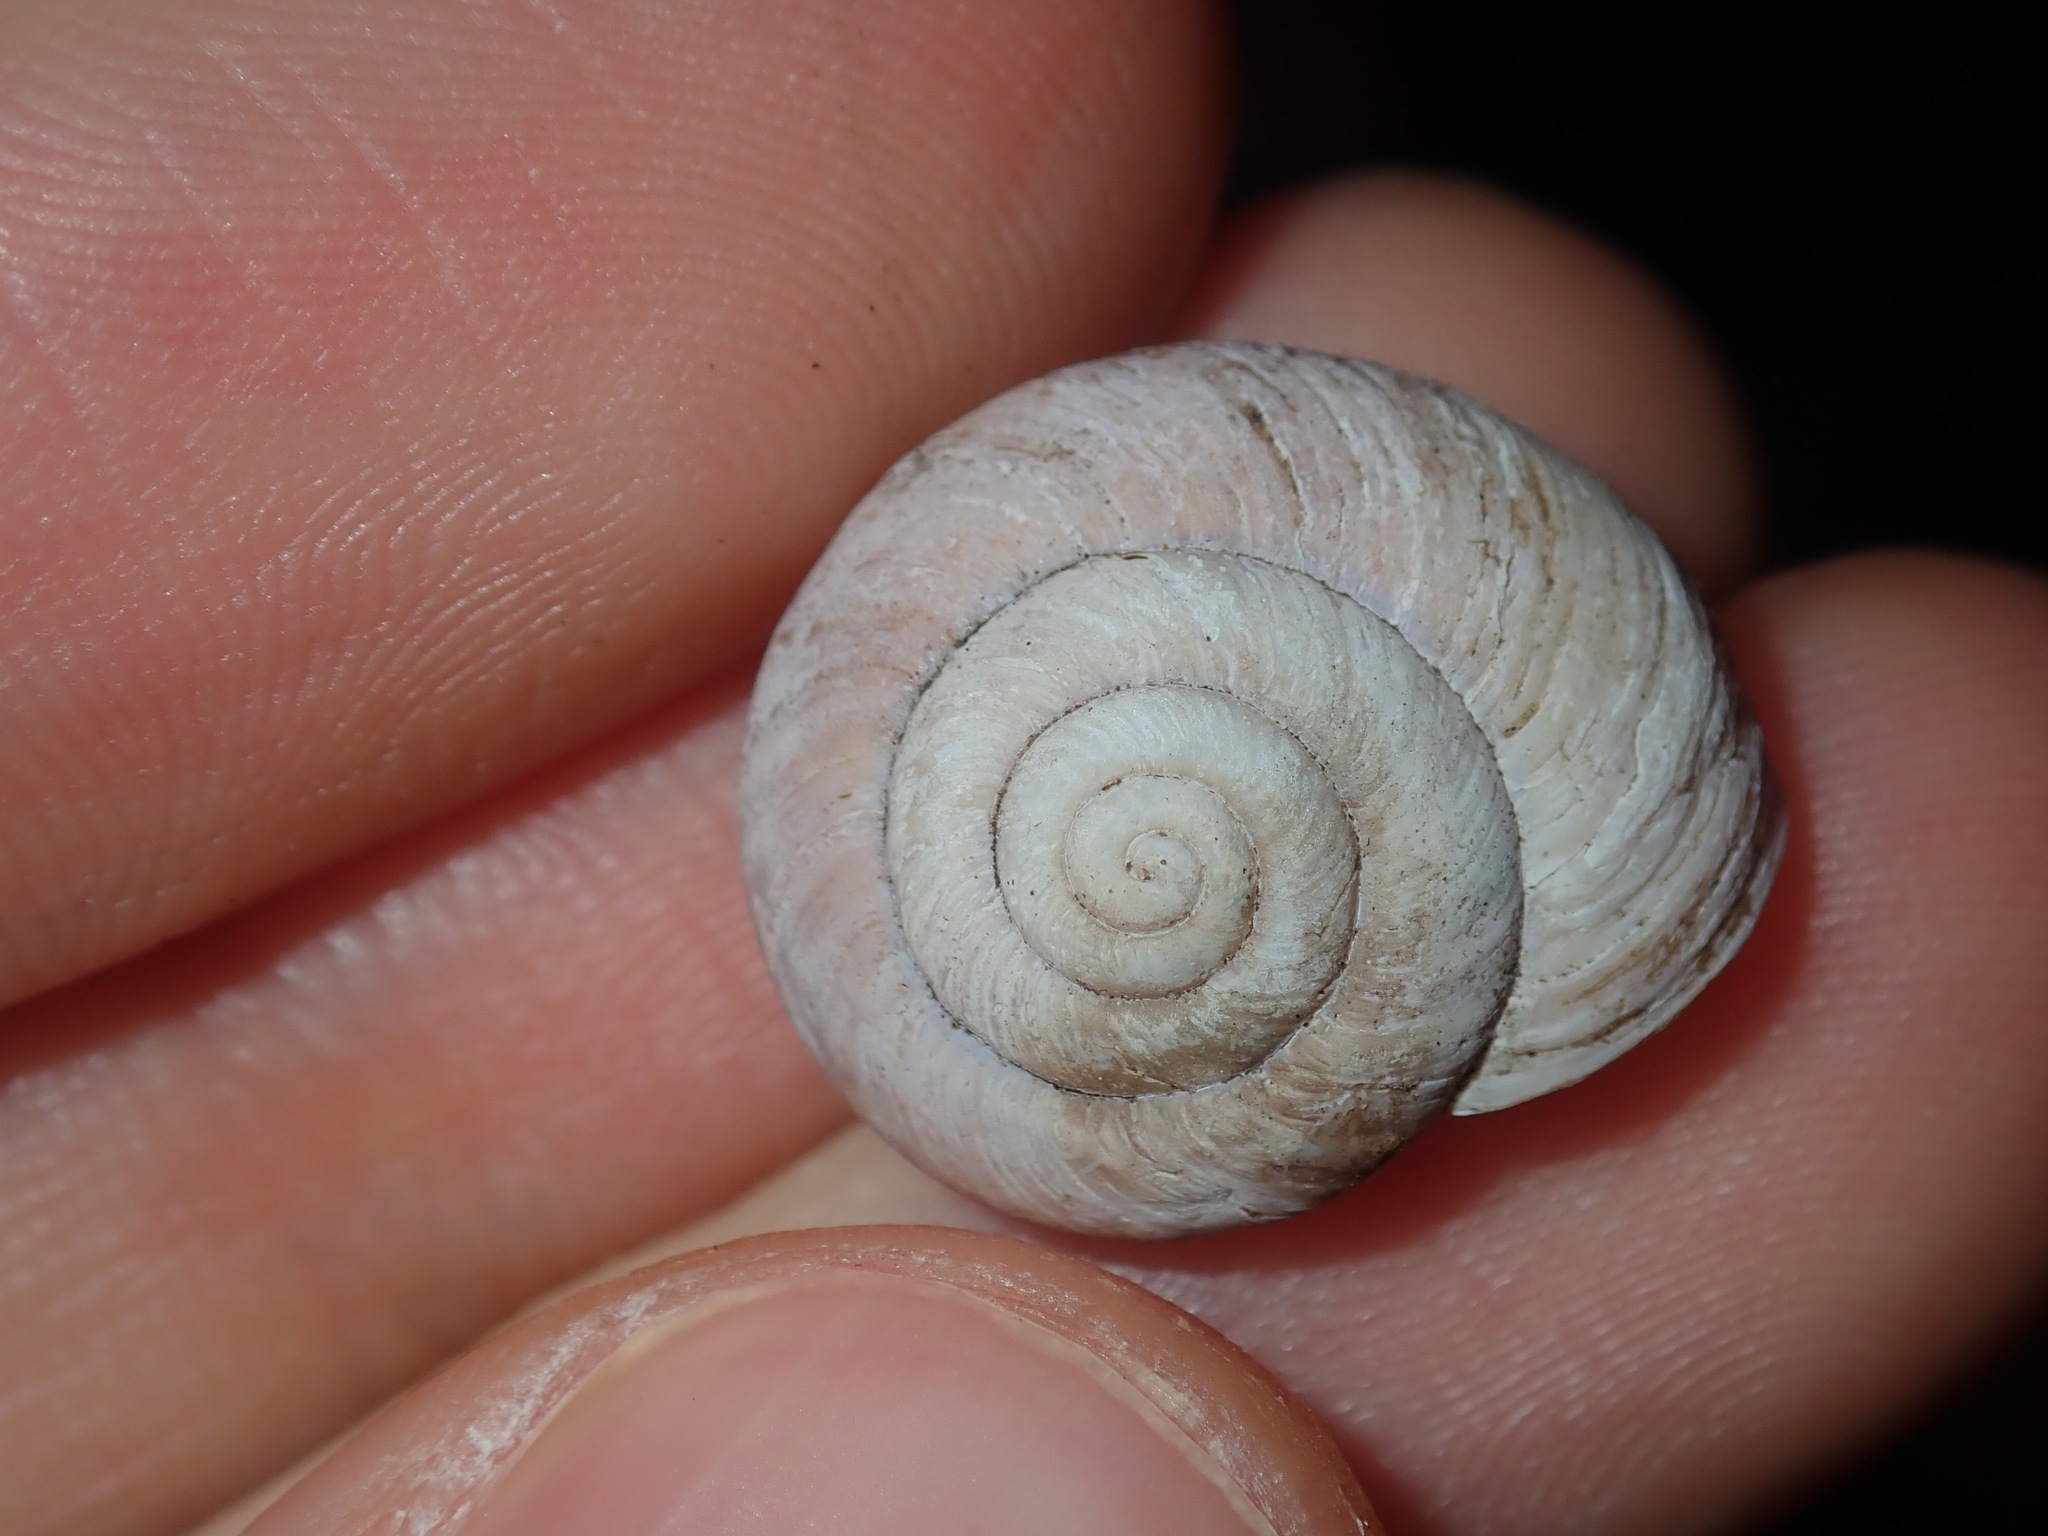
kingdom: Animalia
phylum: Mollusca
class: Gastropoda
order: Stylommatophora
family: Camaenidae
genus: Sauroconcha
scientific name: Sauroconcha sheai
